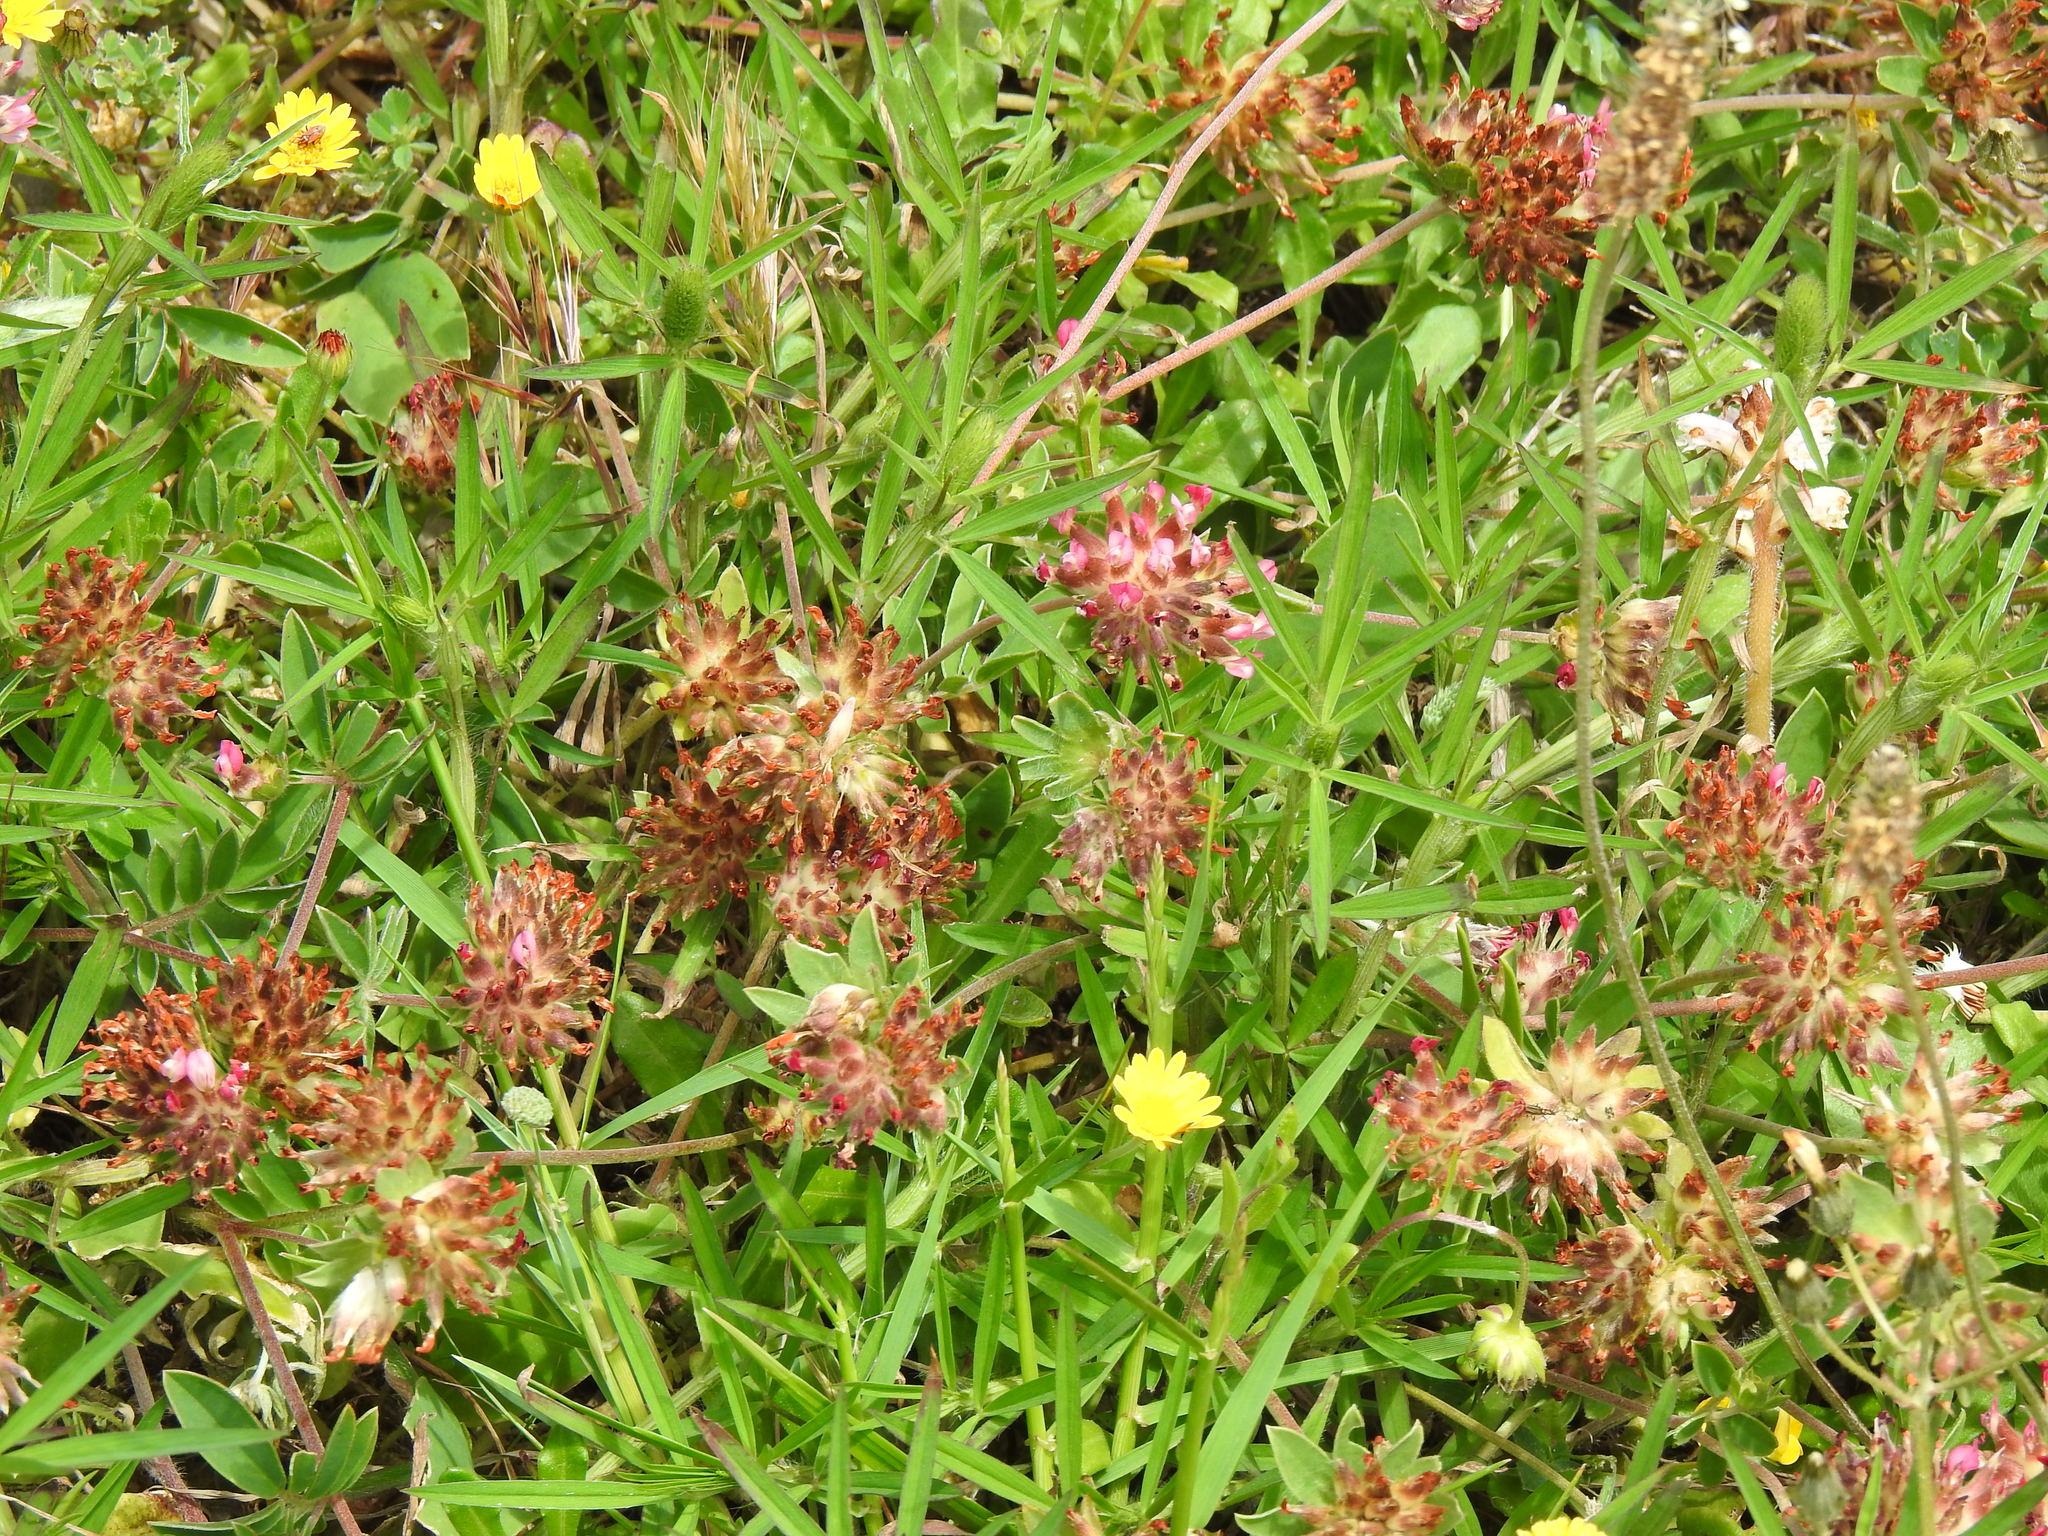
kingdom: Plantae
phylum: Tracheophyta
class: Magnoliopsida
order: Fabales
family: Fabaceae
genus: Anthyllis
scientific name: Anthyllis vulneraria
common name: Kidney vetch
